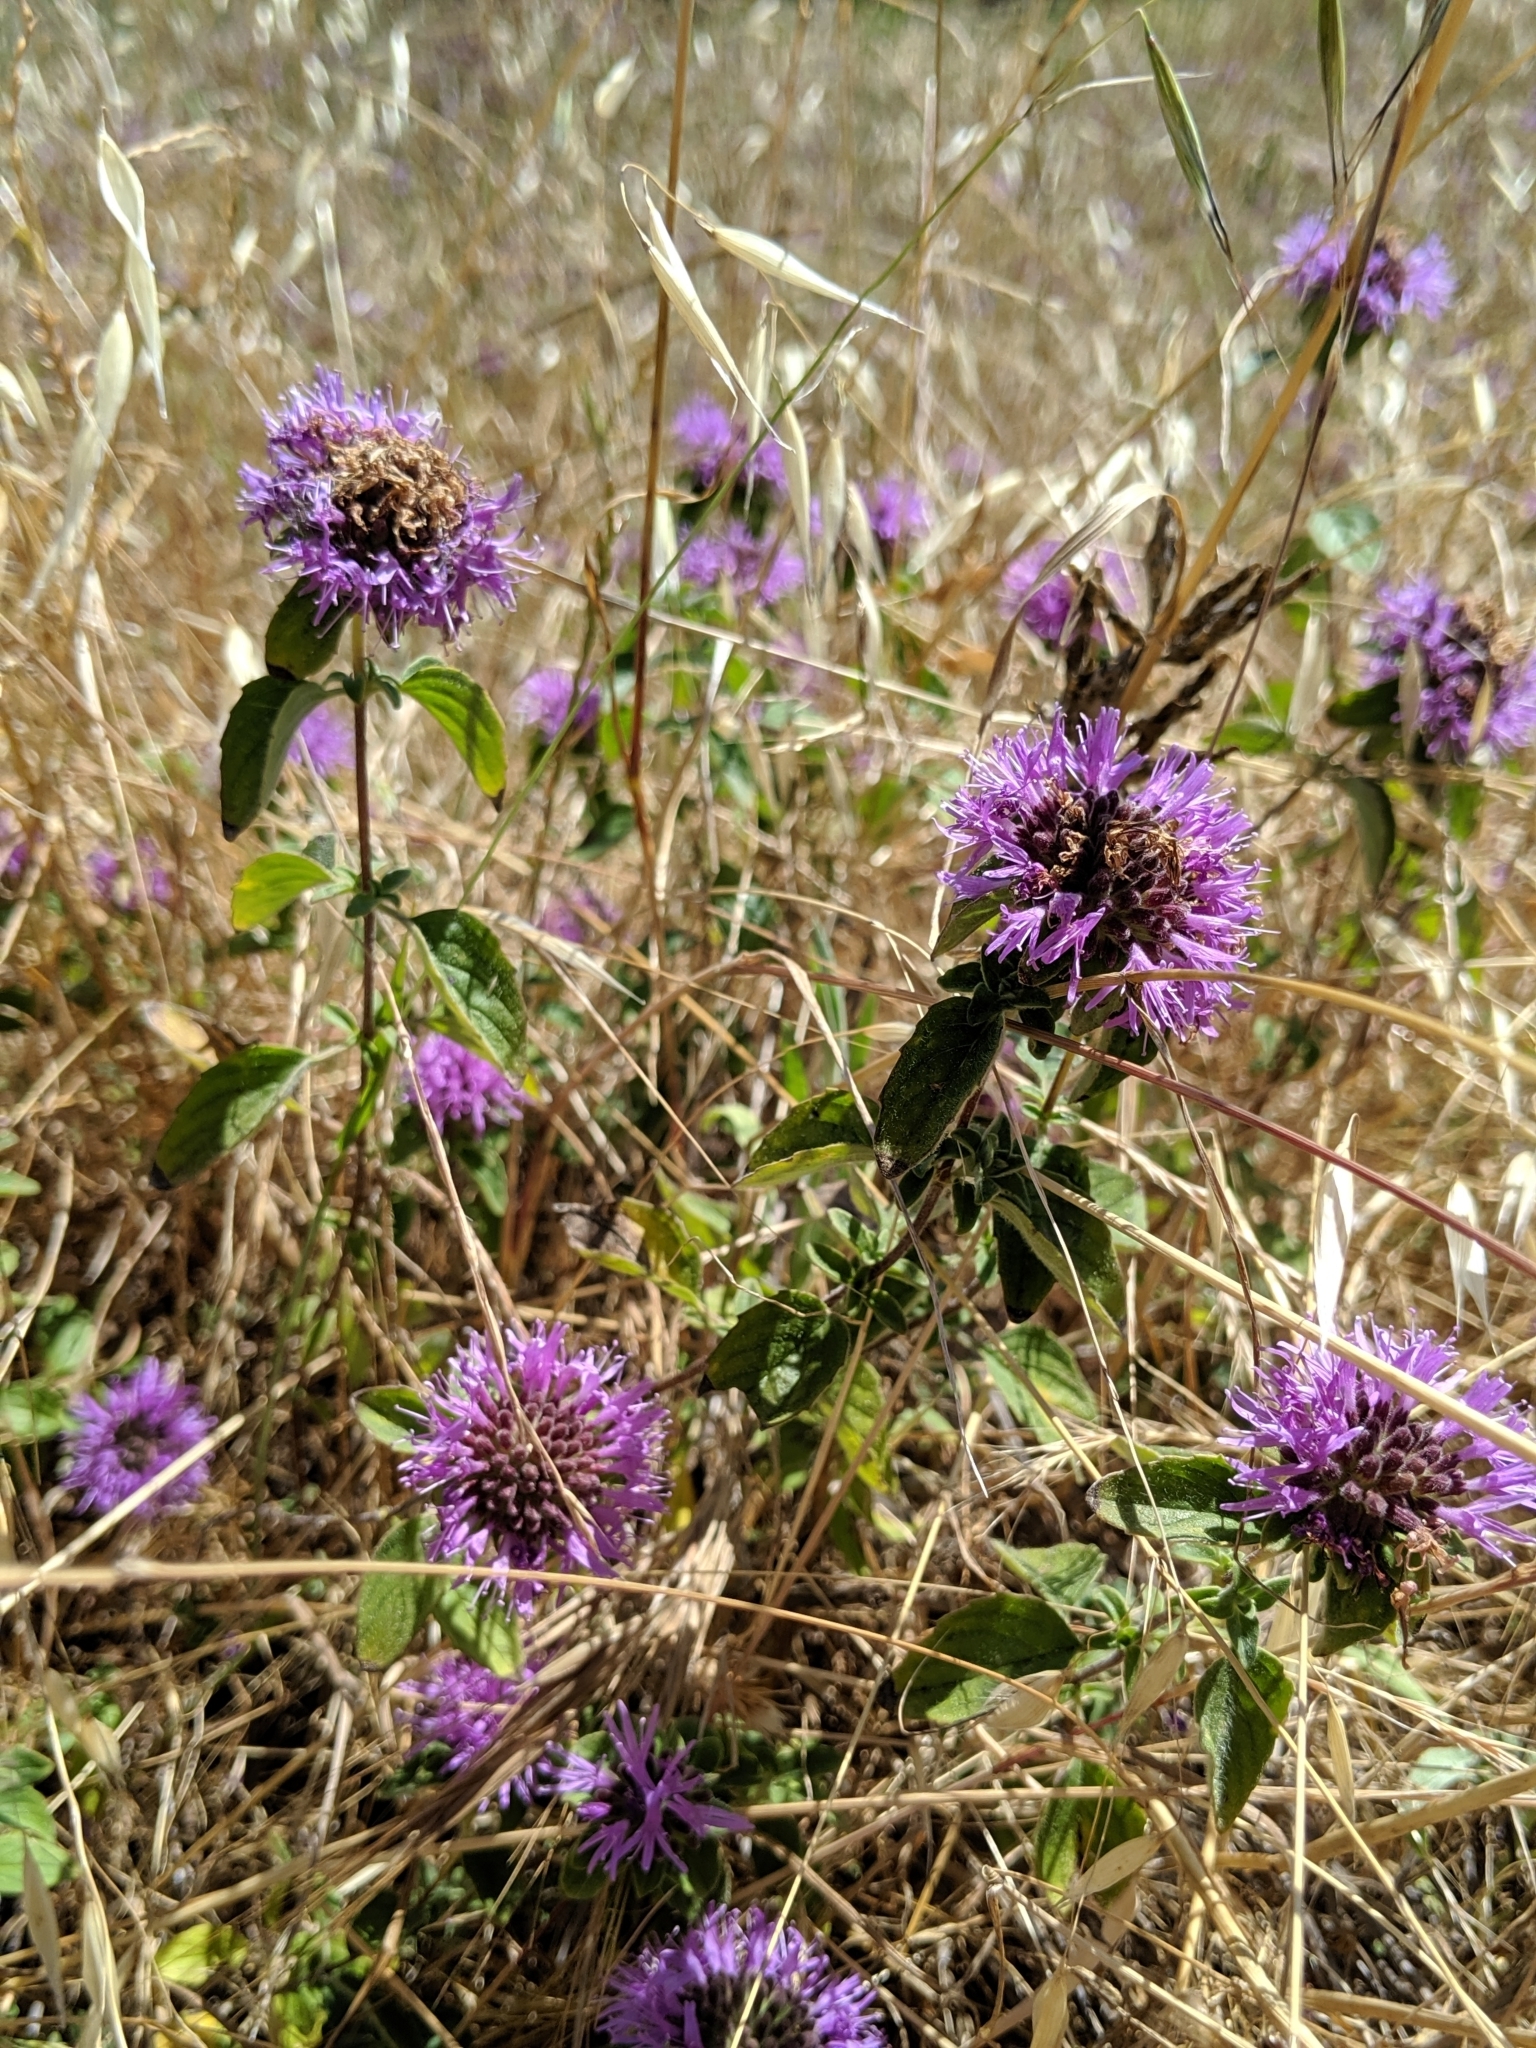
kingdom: Plantae
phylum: Tracheophyta
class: Magnoliopsida
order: Lamiales
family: Lamiaceae
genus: Monardella
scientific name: Monardella odoratissima
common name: Pacific monardella
